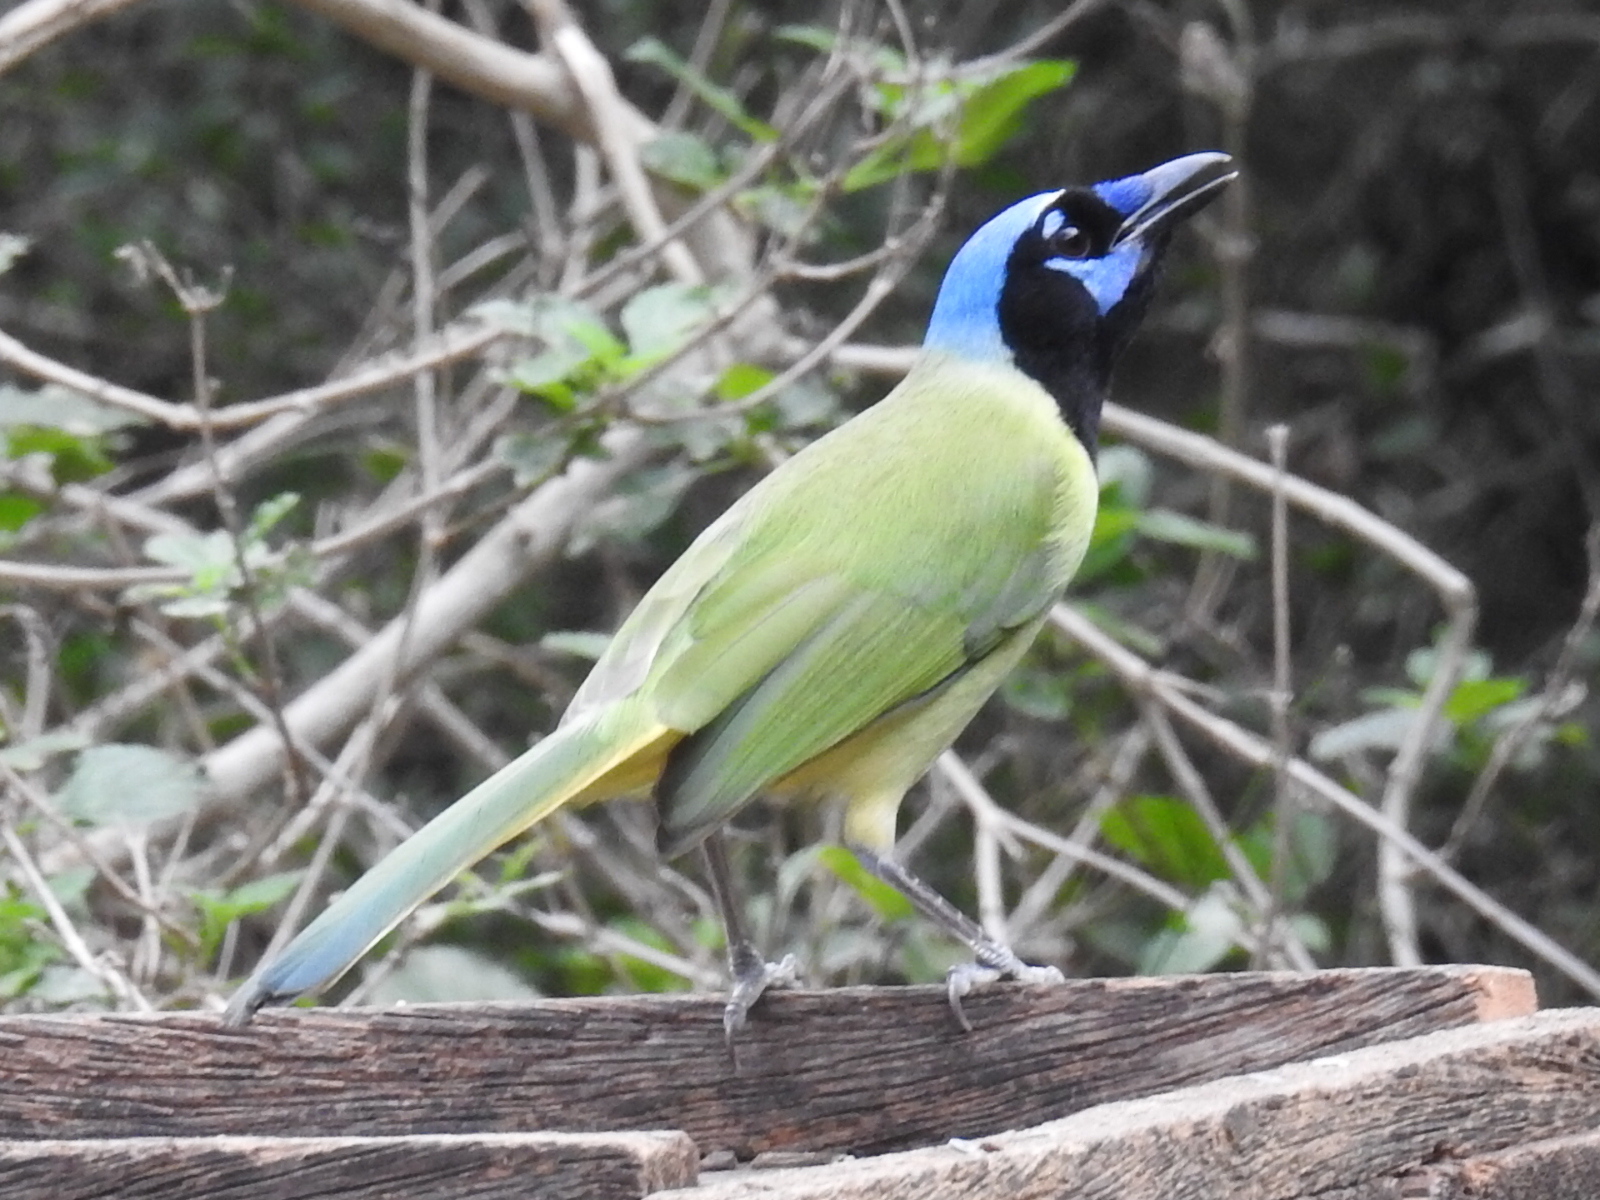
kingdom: Animalia
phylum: Chordata
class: Aves
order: Passeriformes
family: Corvidae
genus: Cyanocorax
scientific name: Cyanocorax yncas
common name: Green jay
